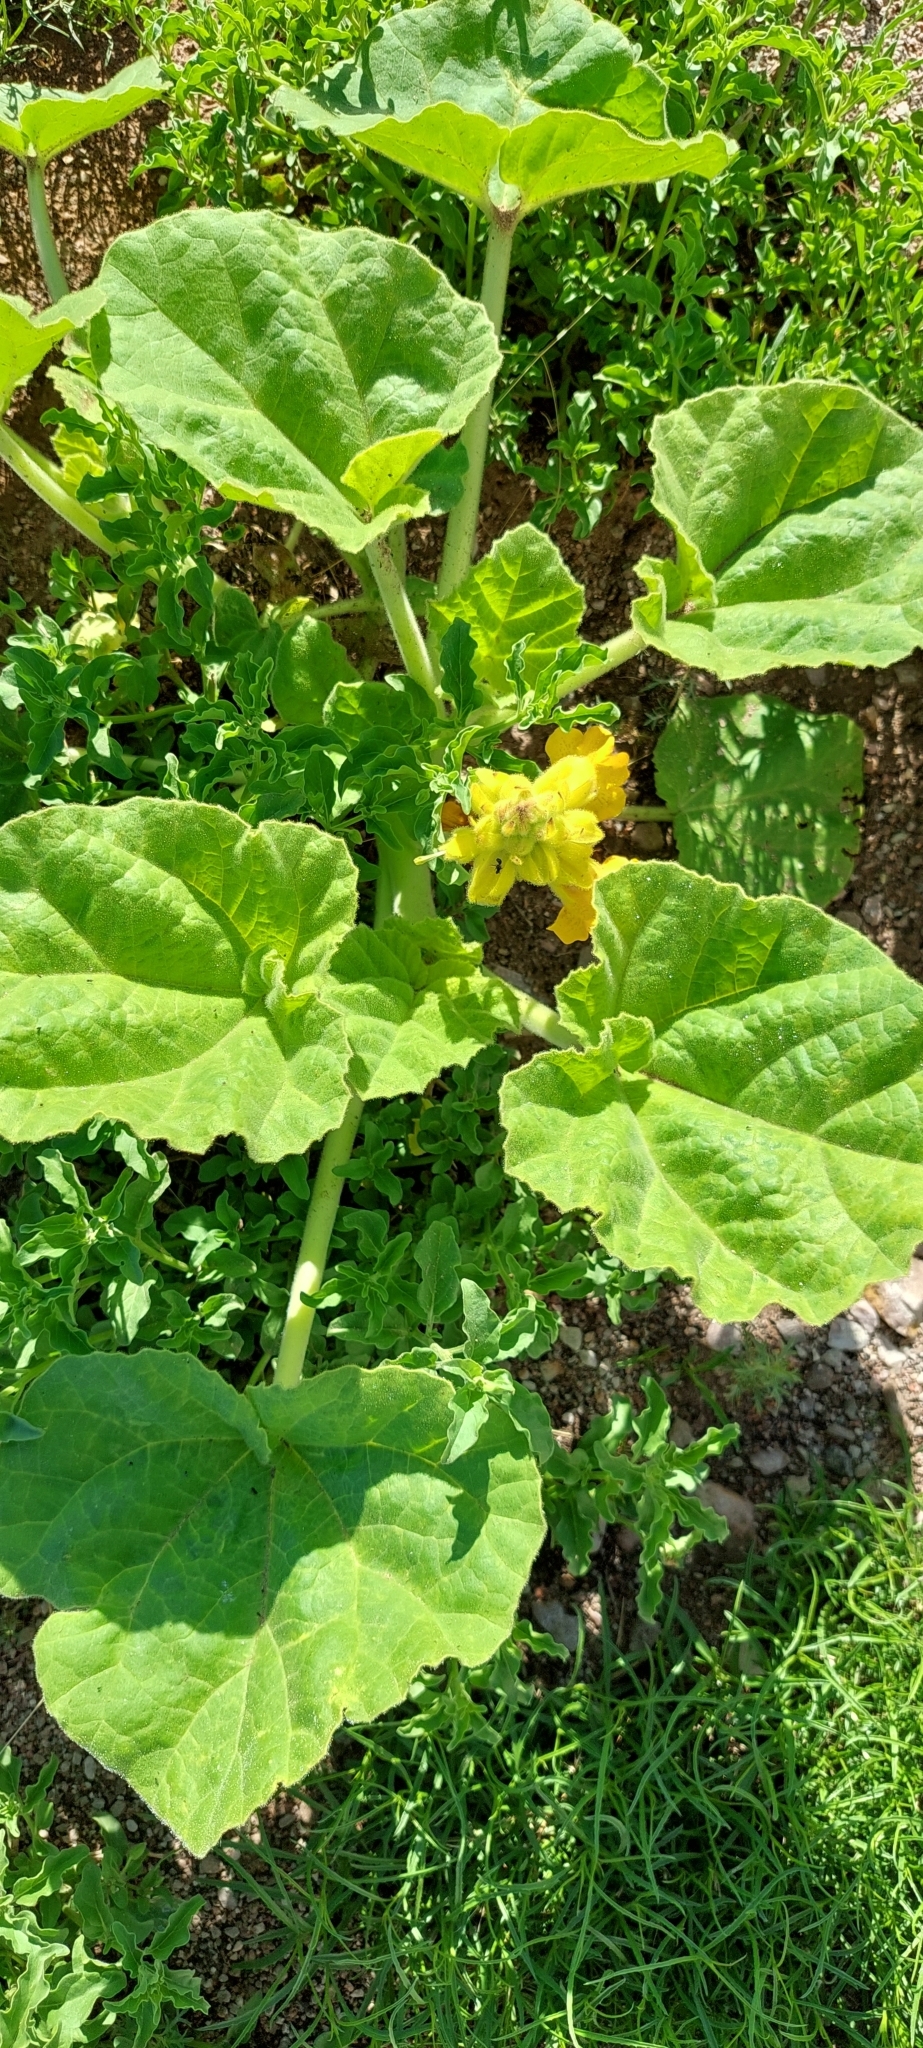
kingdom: Plantae
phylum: Tracheophyta
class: Magnoliopsida
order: Lamiales
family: Martyniaceae
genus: Ibicella
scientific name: Ibicella lutea
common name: Yellow unicorn-plant
